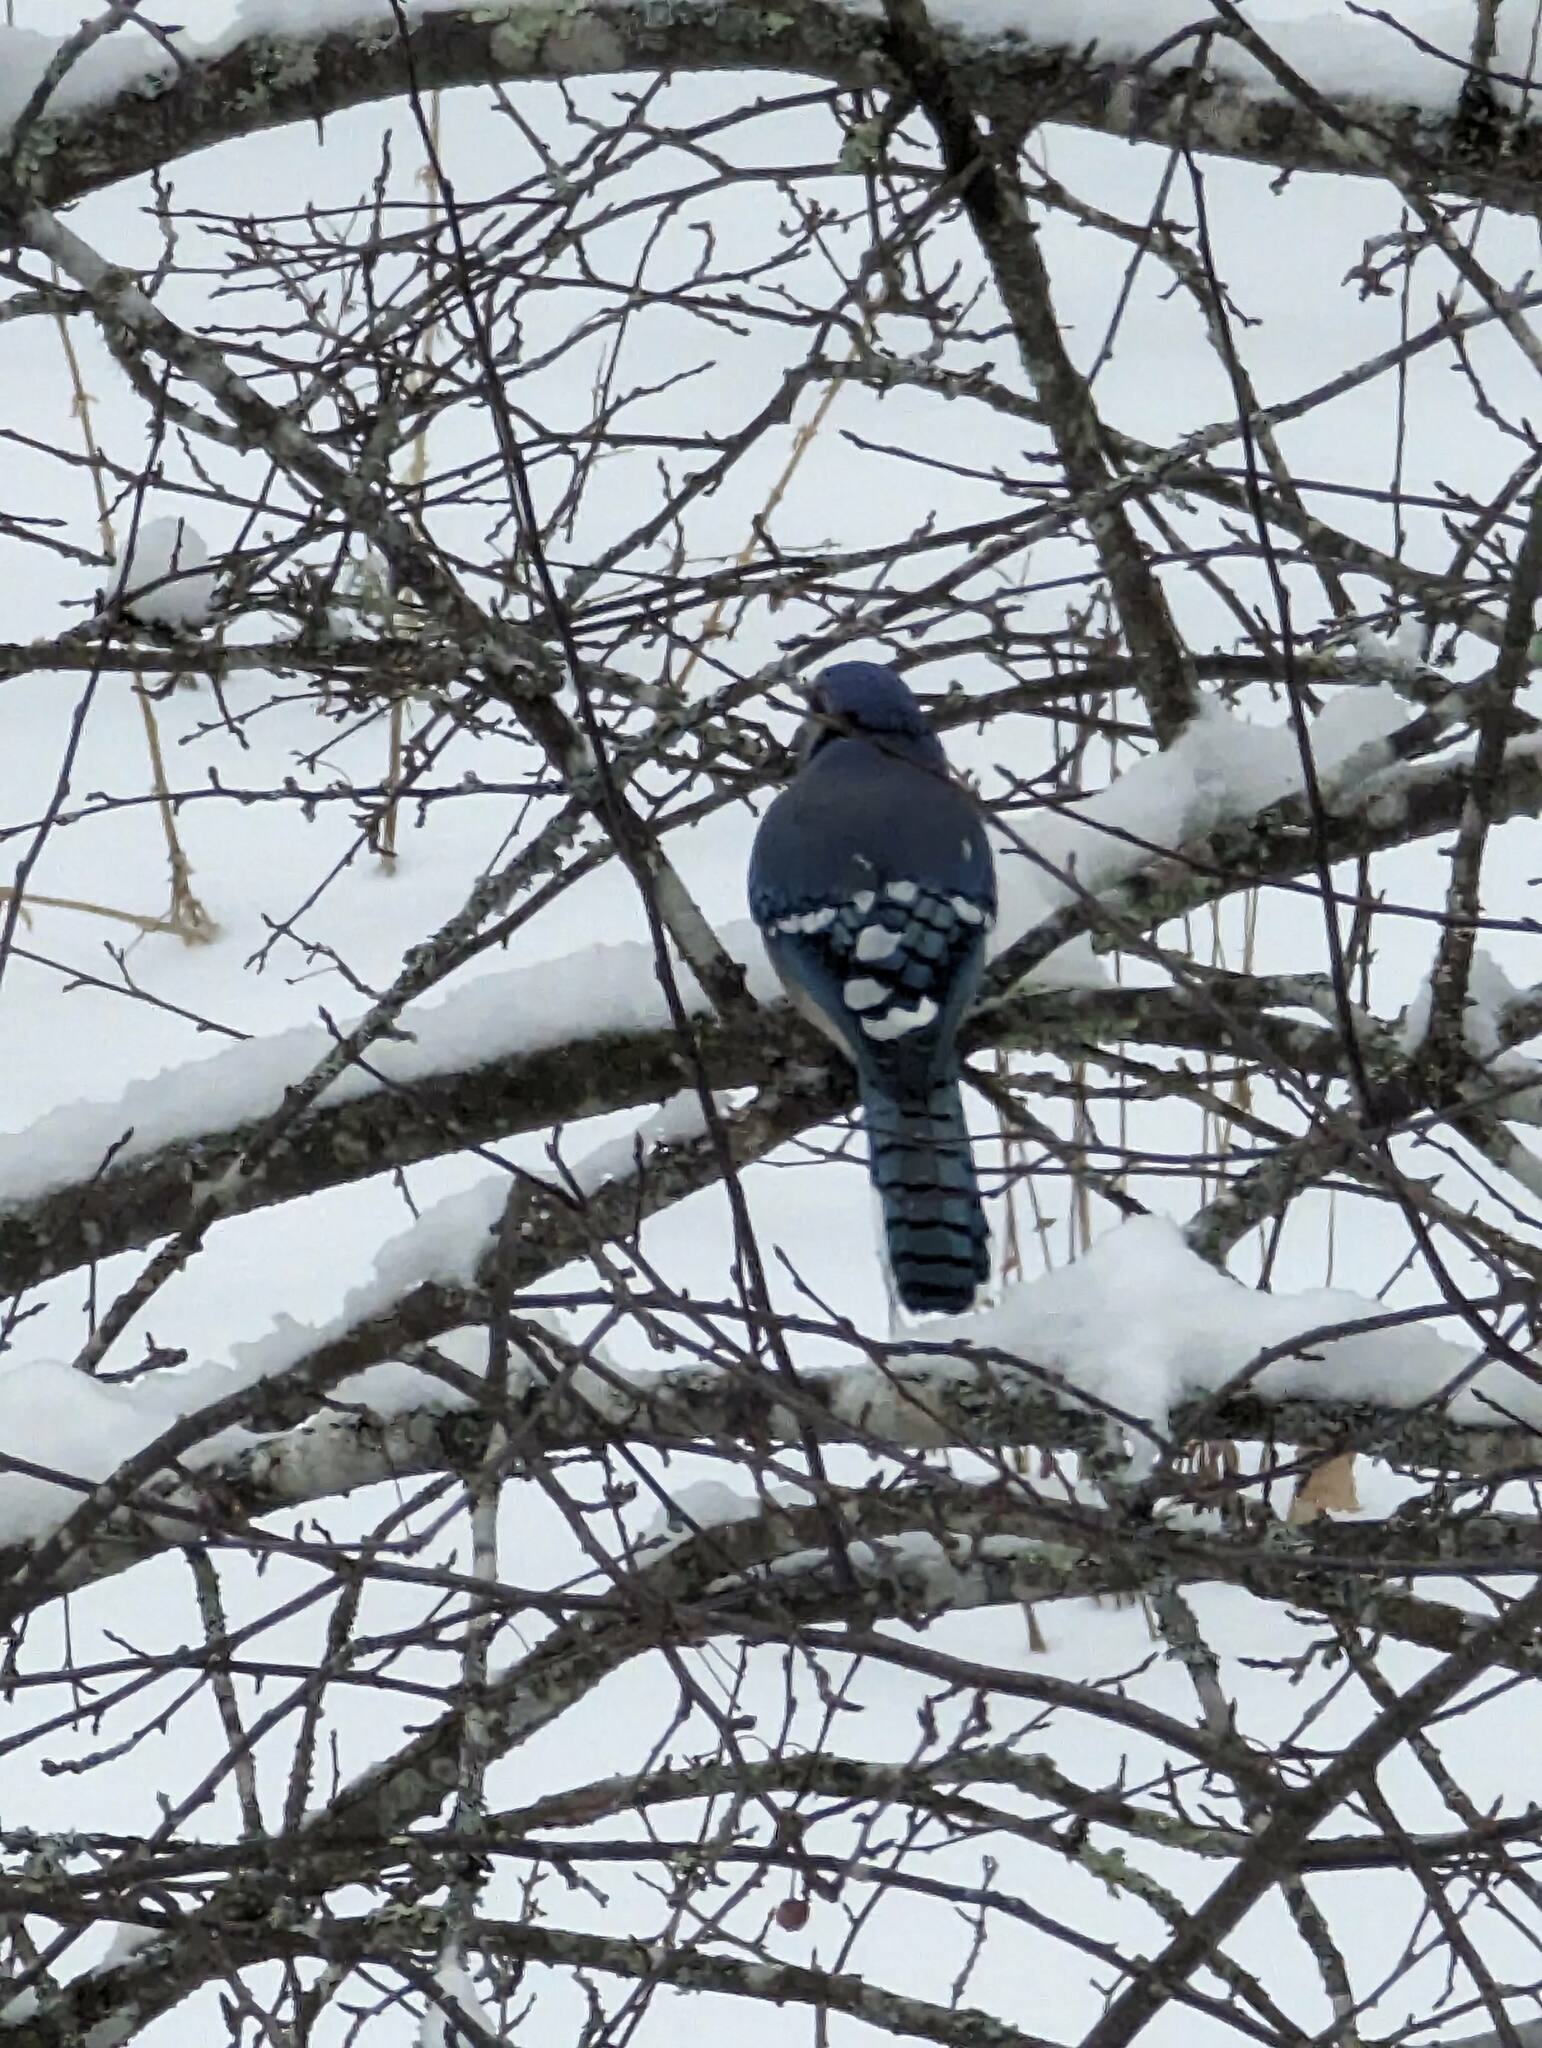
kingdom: Animalia
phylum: Chordata
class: Aves
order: Passeriformes
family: Corvidae
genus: Cyanocitta
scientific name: Cyanocitta cristata
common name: Blue jay
